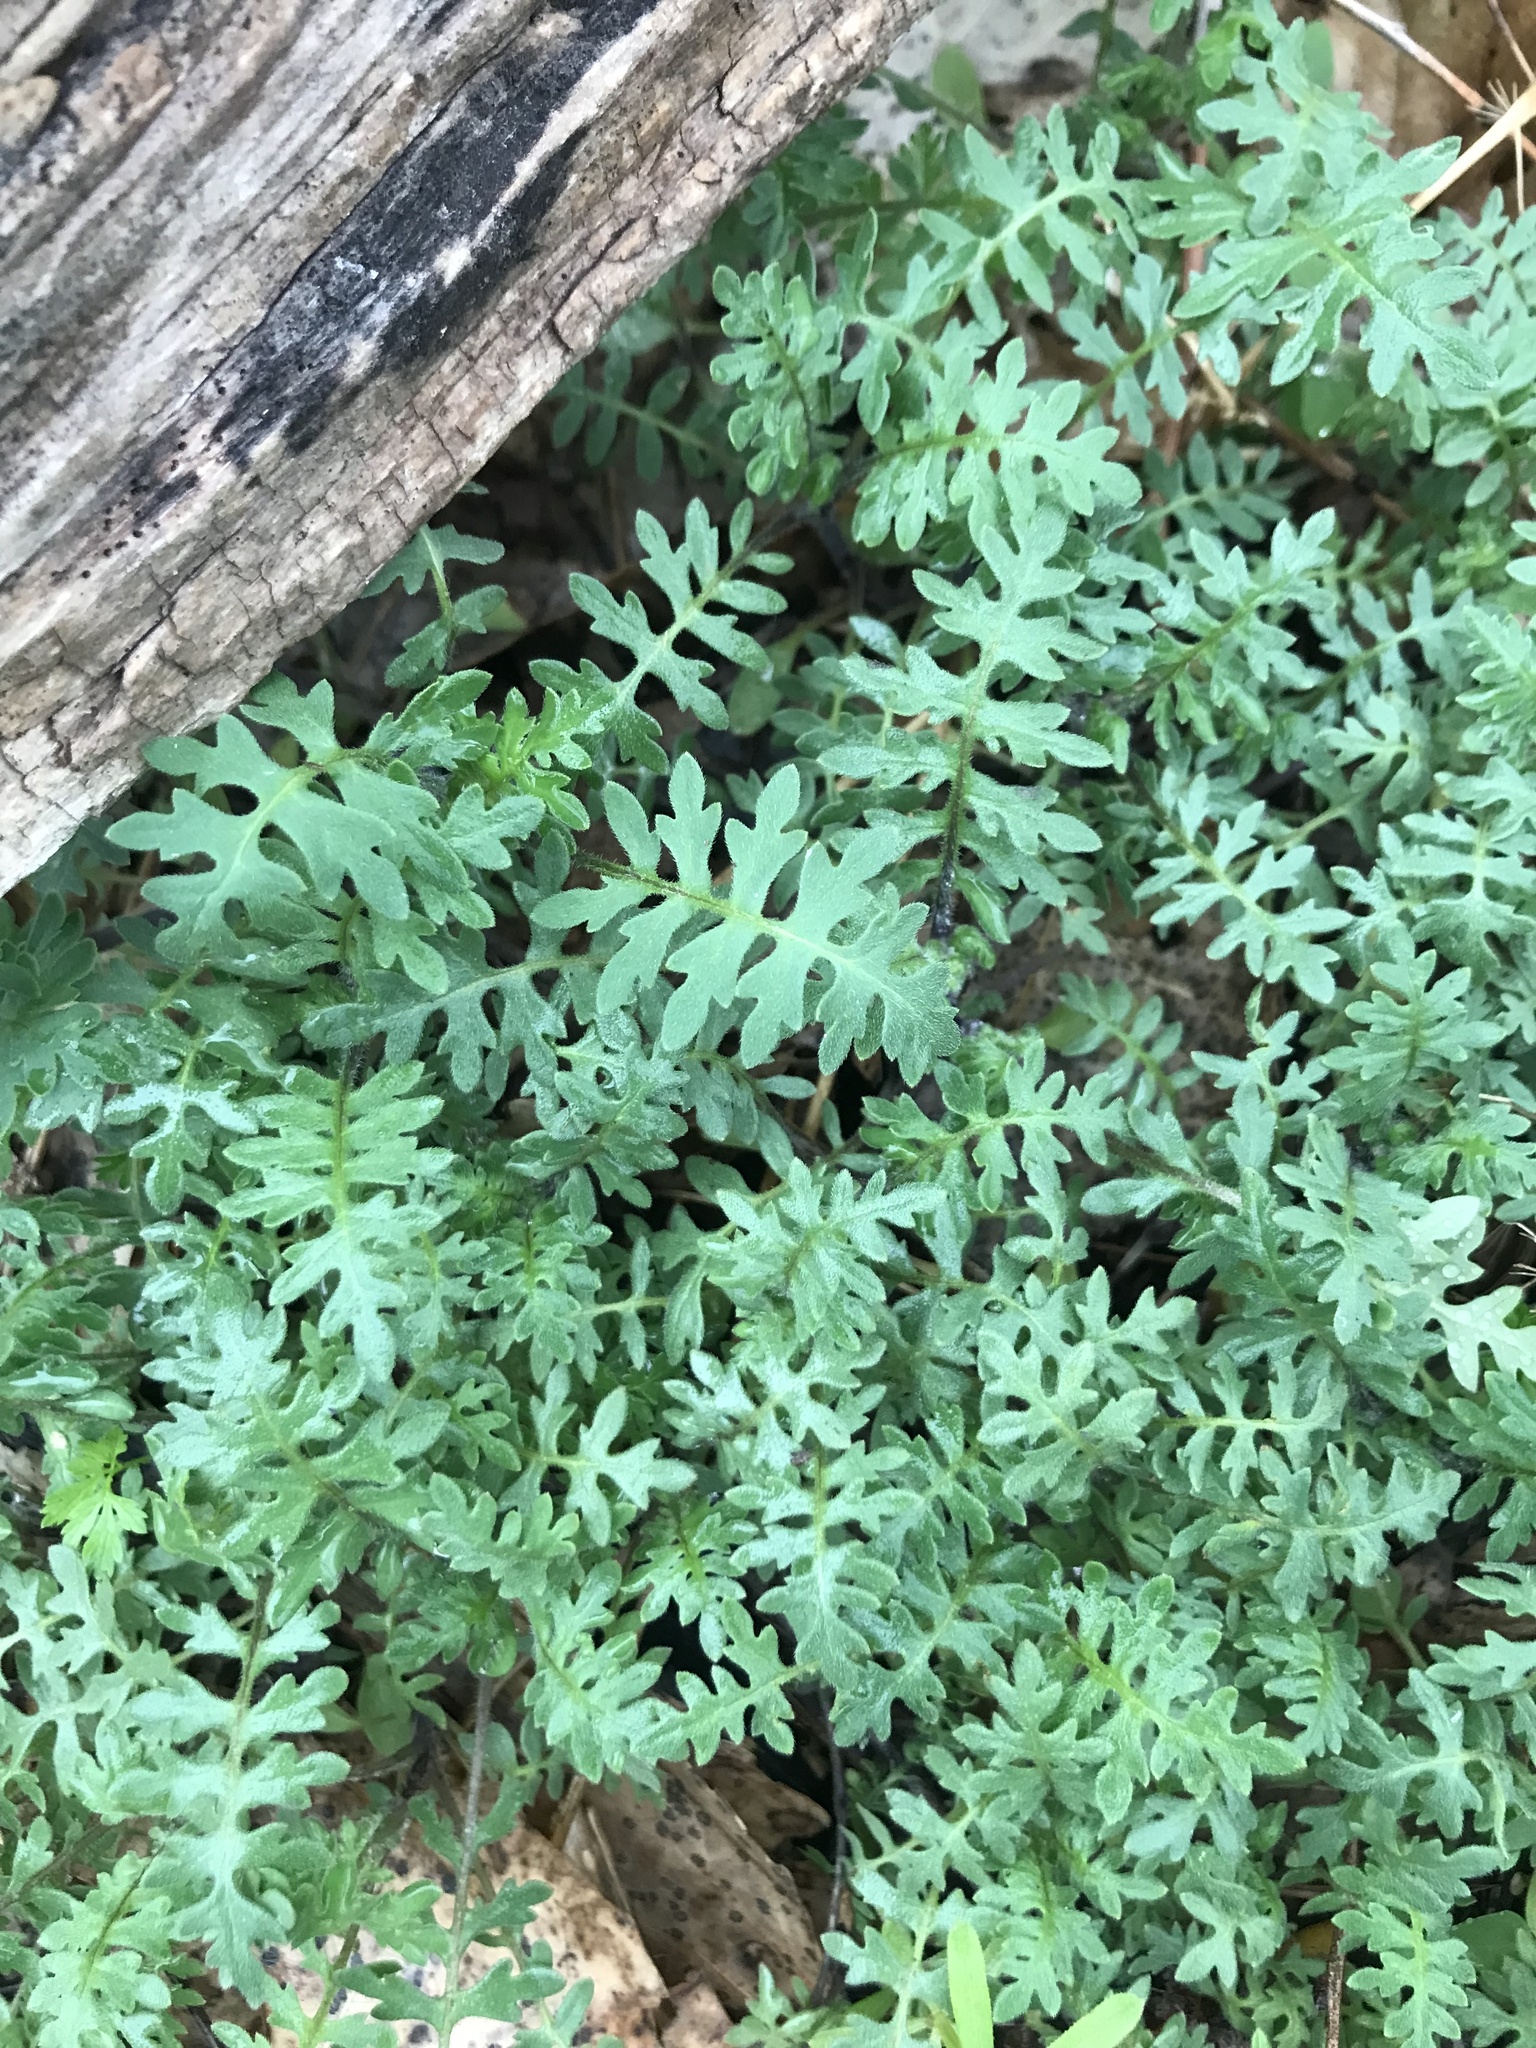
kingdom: Plantae
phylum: Tracheophyta
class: Magnoliopsida
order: Boraginales
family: Hydrophyllaceae
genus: Ellisia
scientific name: Ellisia nyctelea
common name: Aunt lucy
